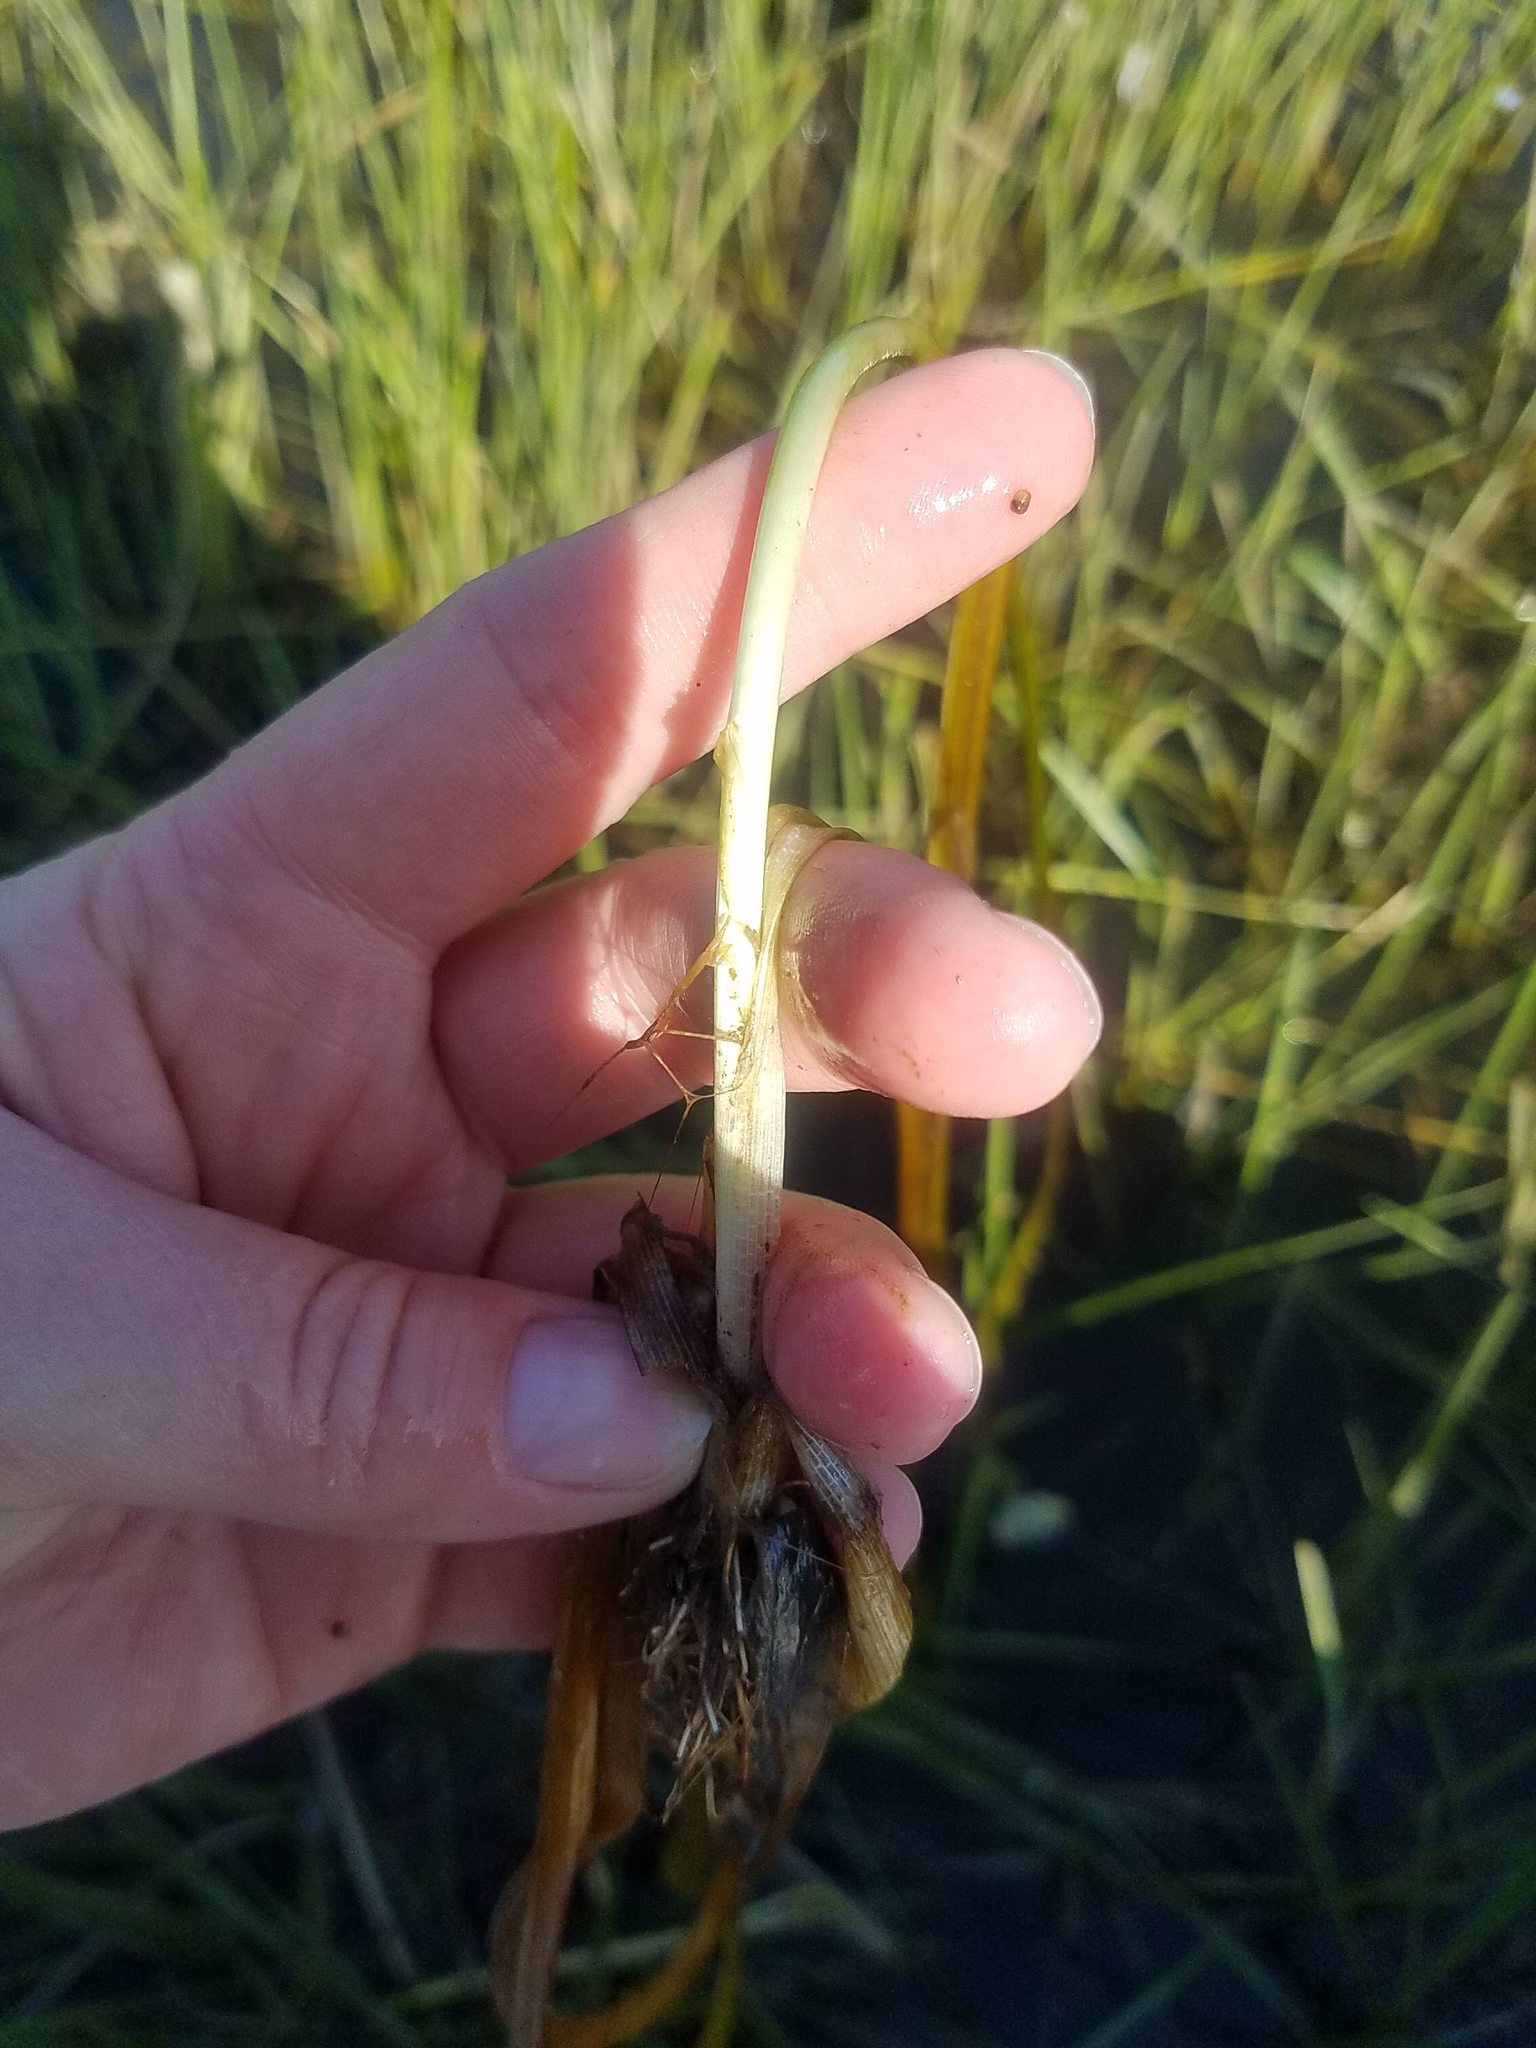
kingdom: Plantae
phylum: Tracheophyta
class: Liliopsida
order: Poales
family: Typhaceae
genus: Sparganium
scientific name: Sparganium emersum
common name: Unbranched bur-reed
